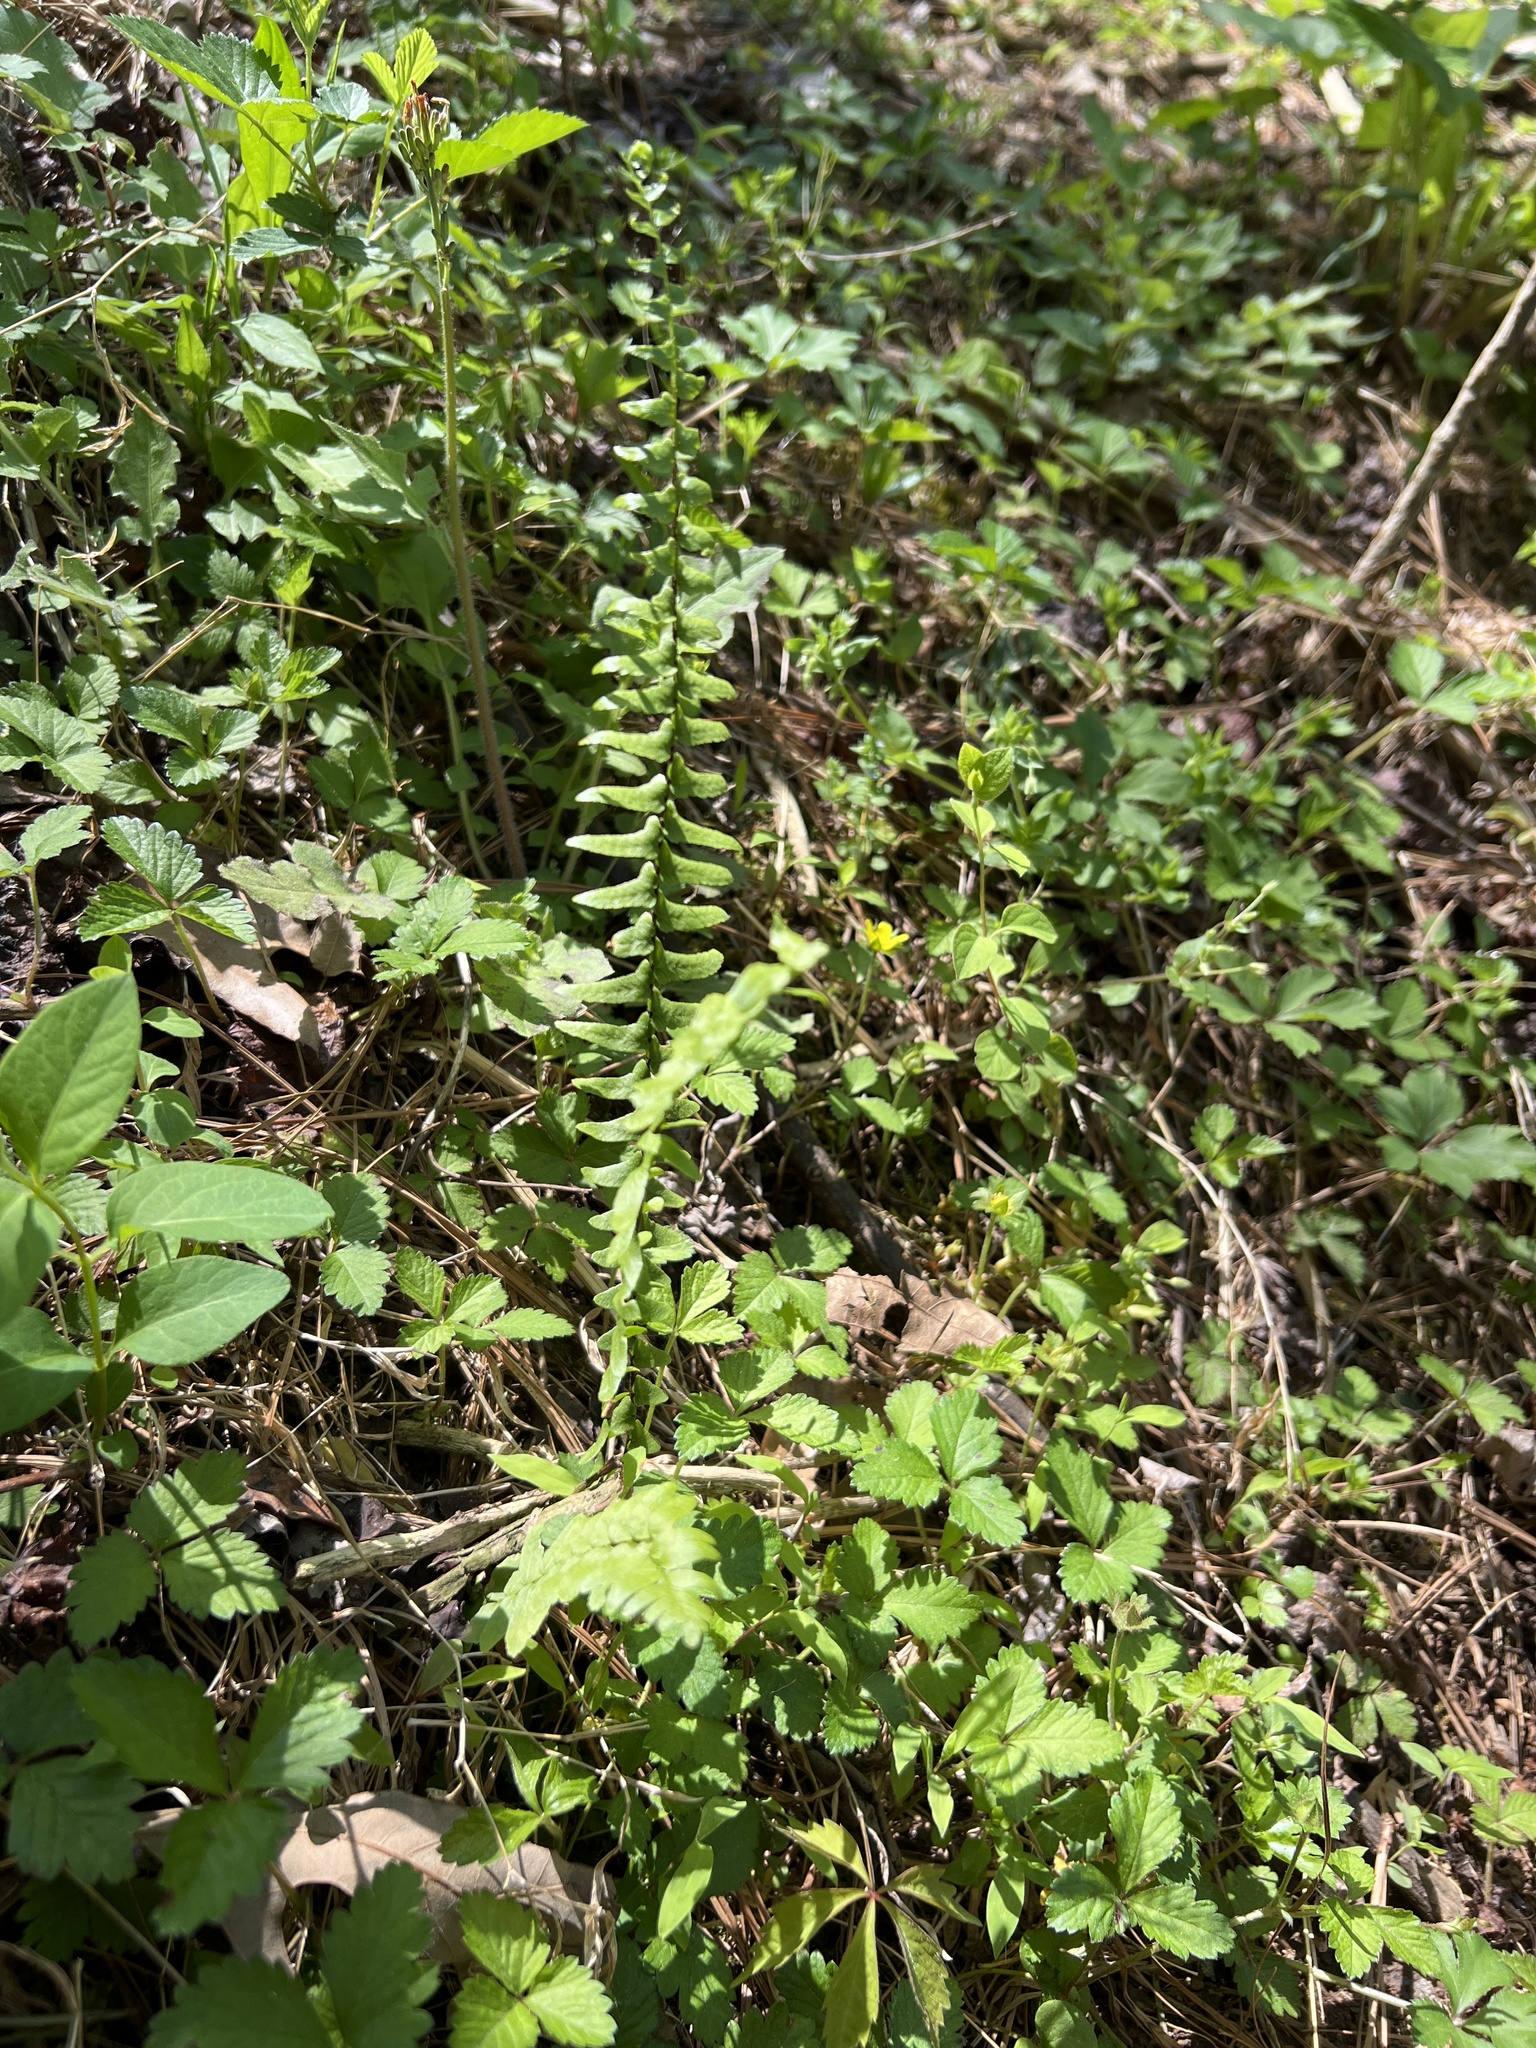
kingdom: Plantae
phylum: Tracheophyta
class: Polypodiopsida
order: Polypodiales
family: Aspleniaceae
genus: Asplenium
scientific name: Asplenium platyneuron
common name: Ebony spleenwort
